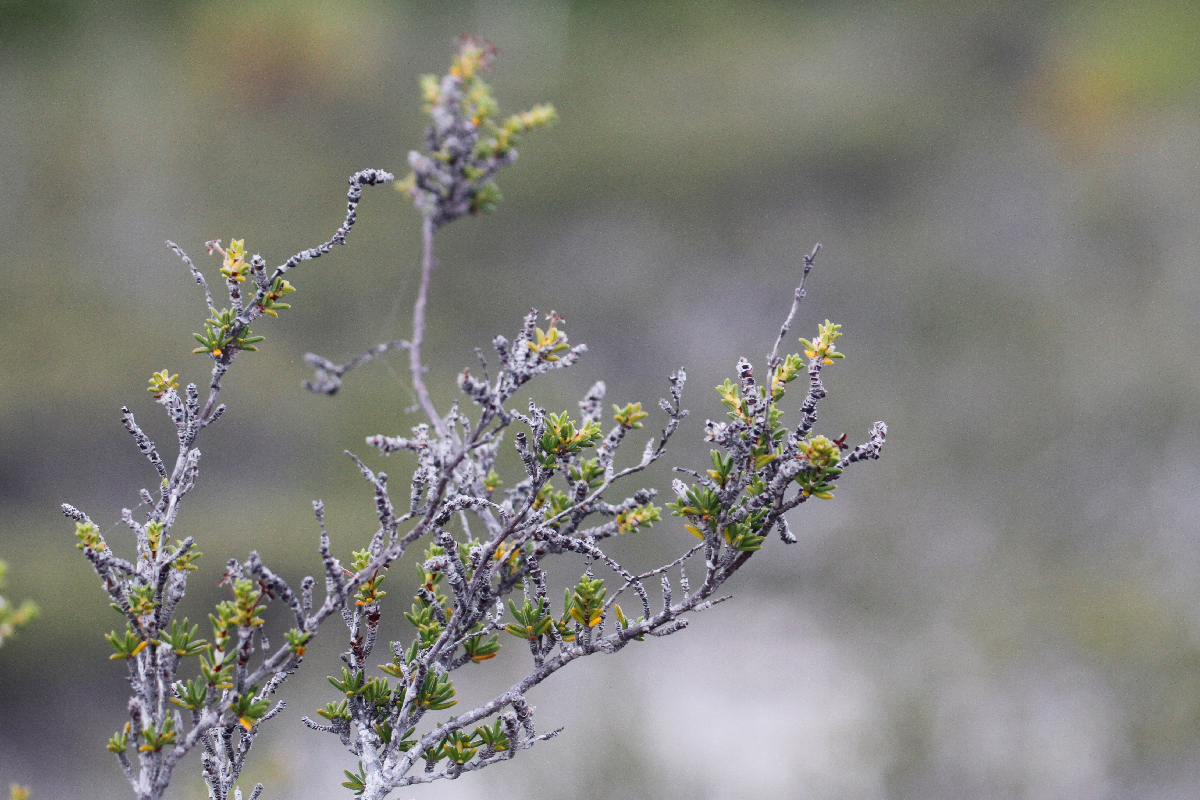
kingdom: Plantae
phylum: Tracheophyta
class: Magnoliopsida
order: Gentianales
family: Rubiaceae
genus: Rachicallis
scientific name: Rachicallis americana
